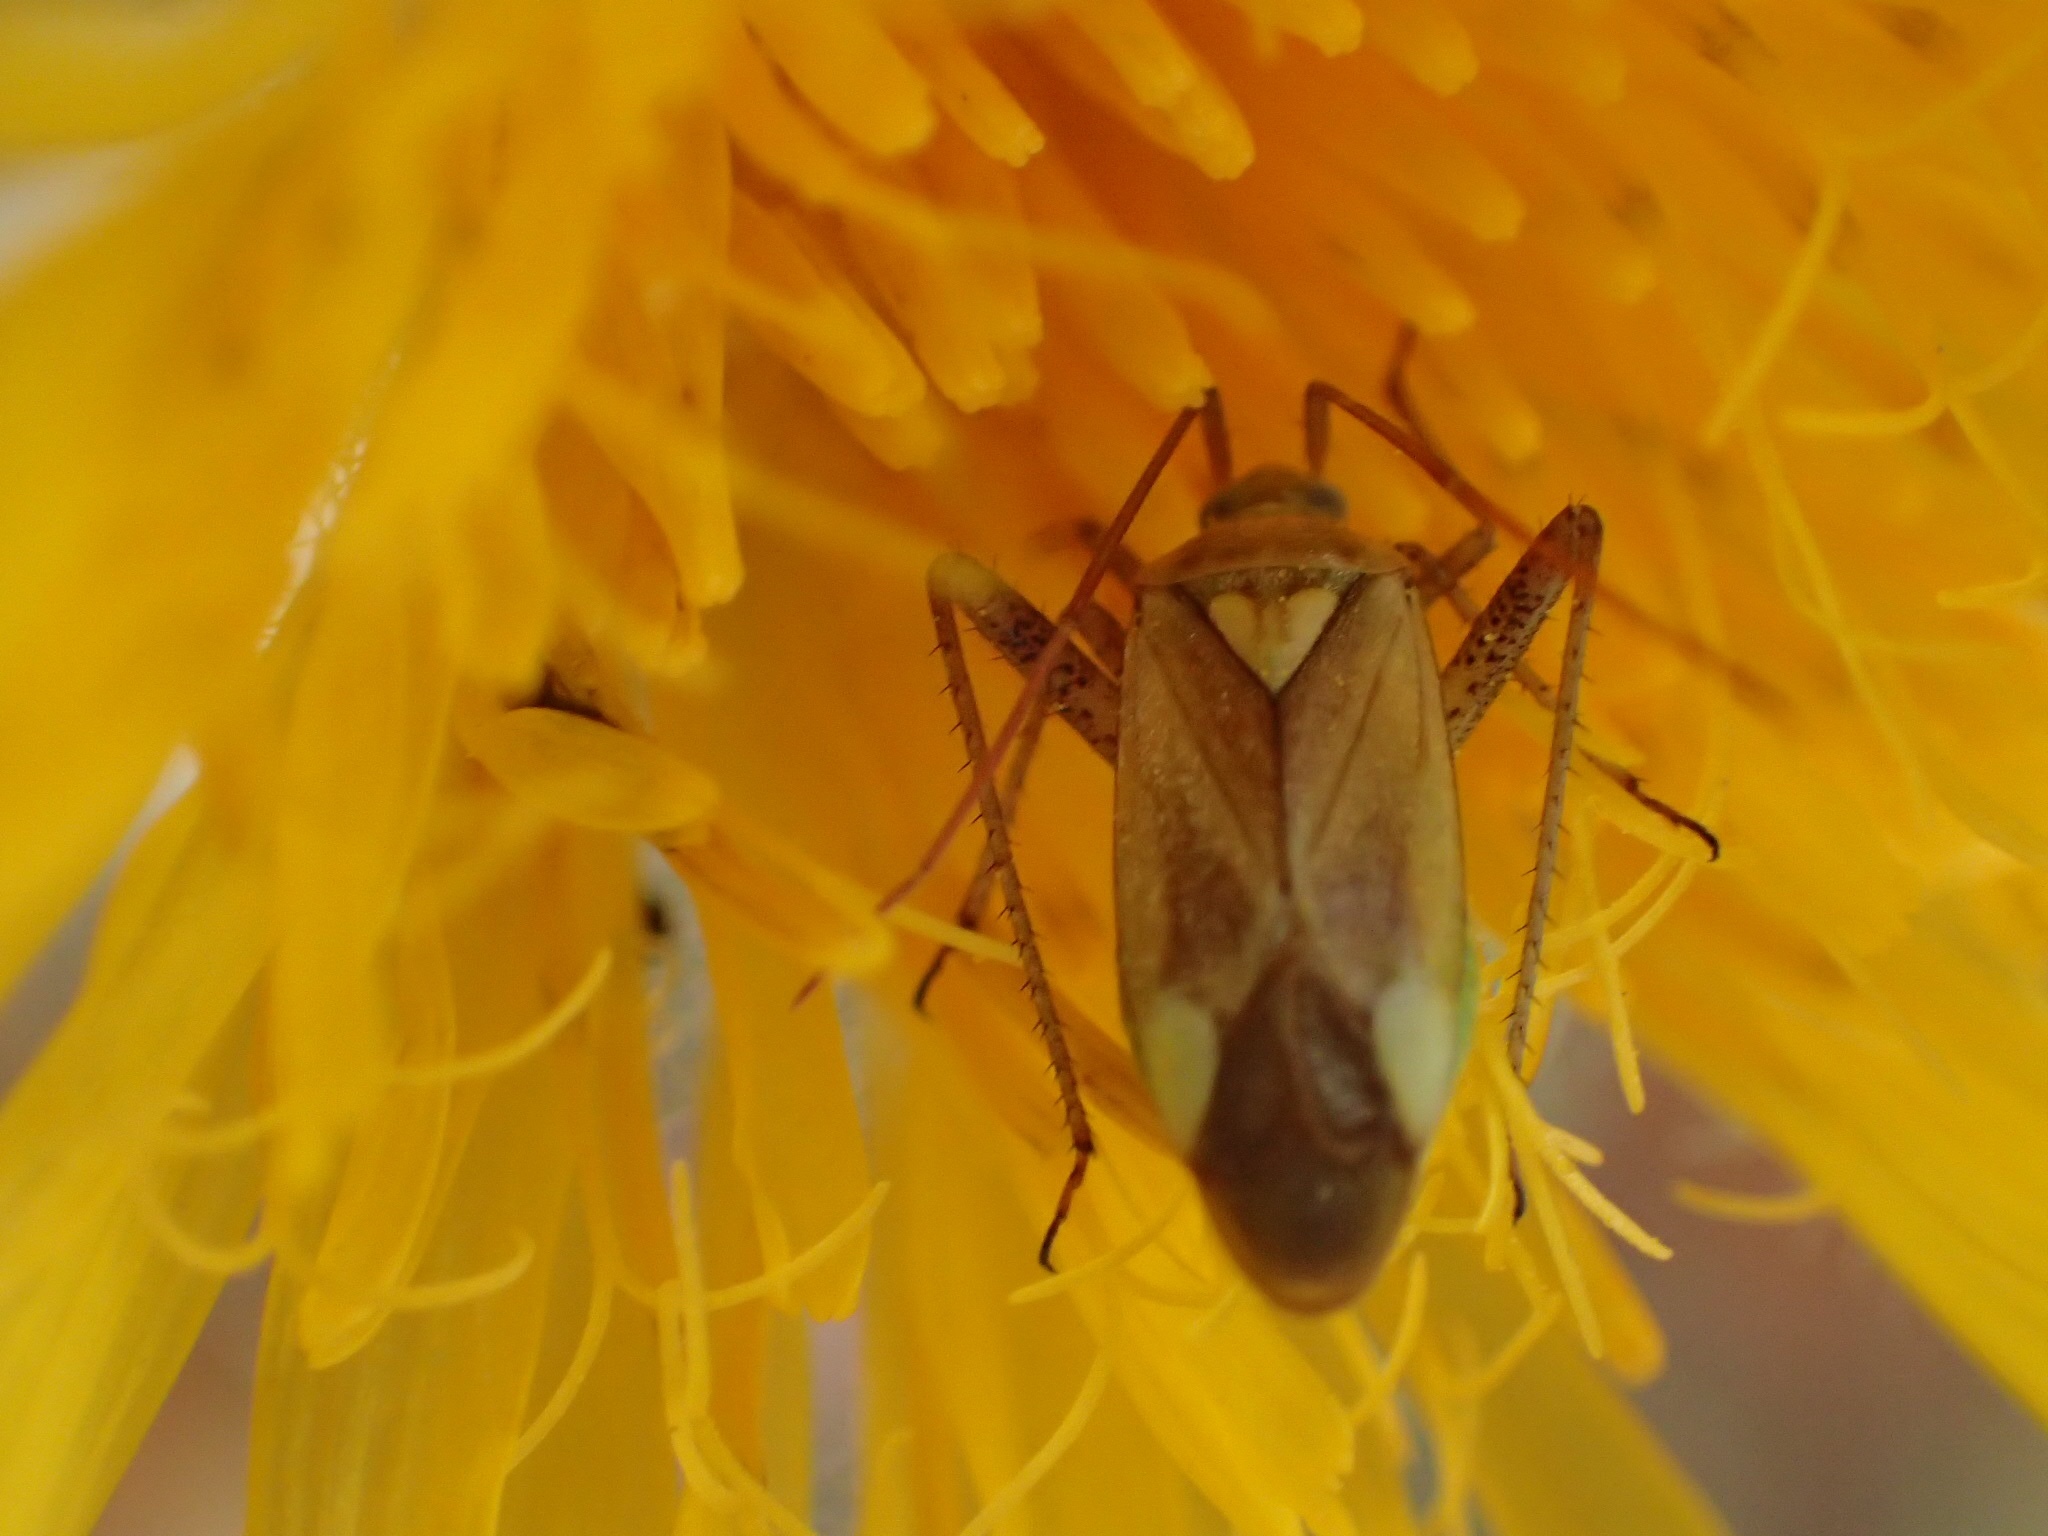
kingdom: Animalia
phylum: Arthropoda
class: Insecta
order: Hemiptera
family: Miridae
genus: Adelphocoris
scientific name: Adelphocoris lineolatus
